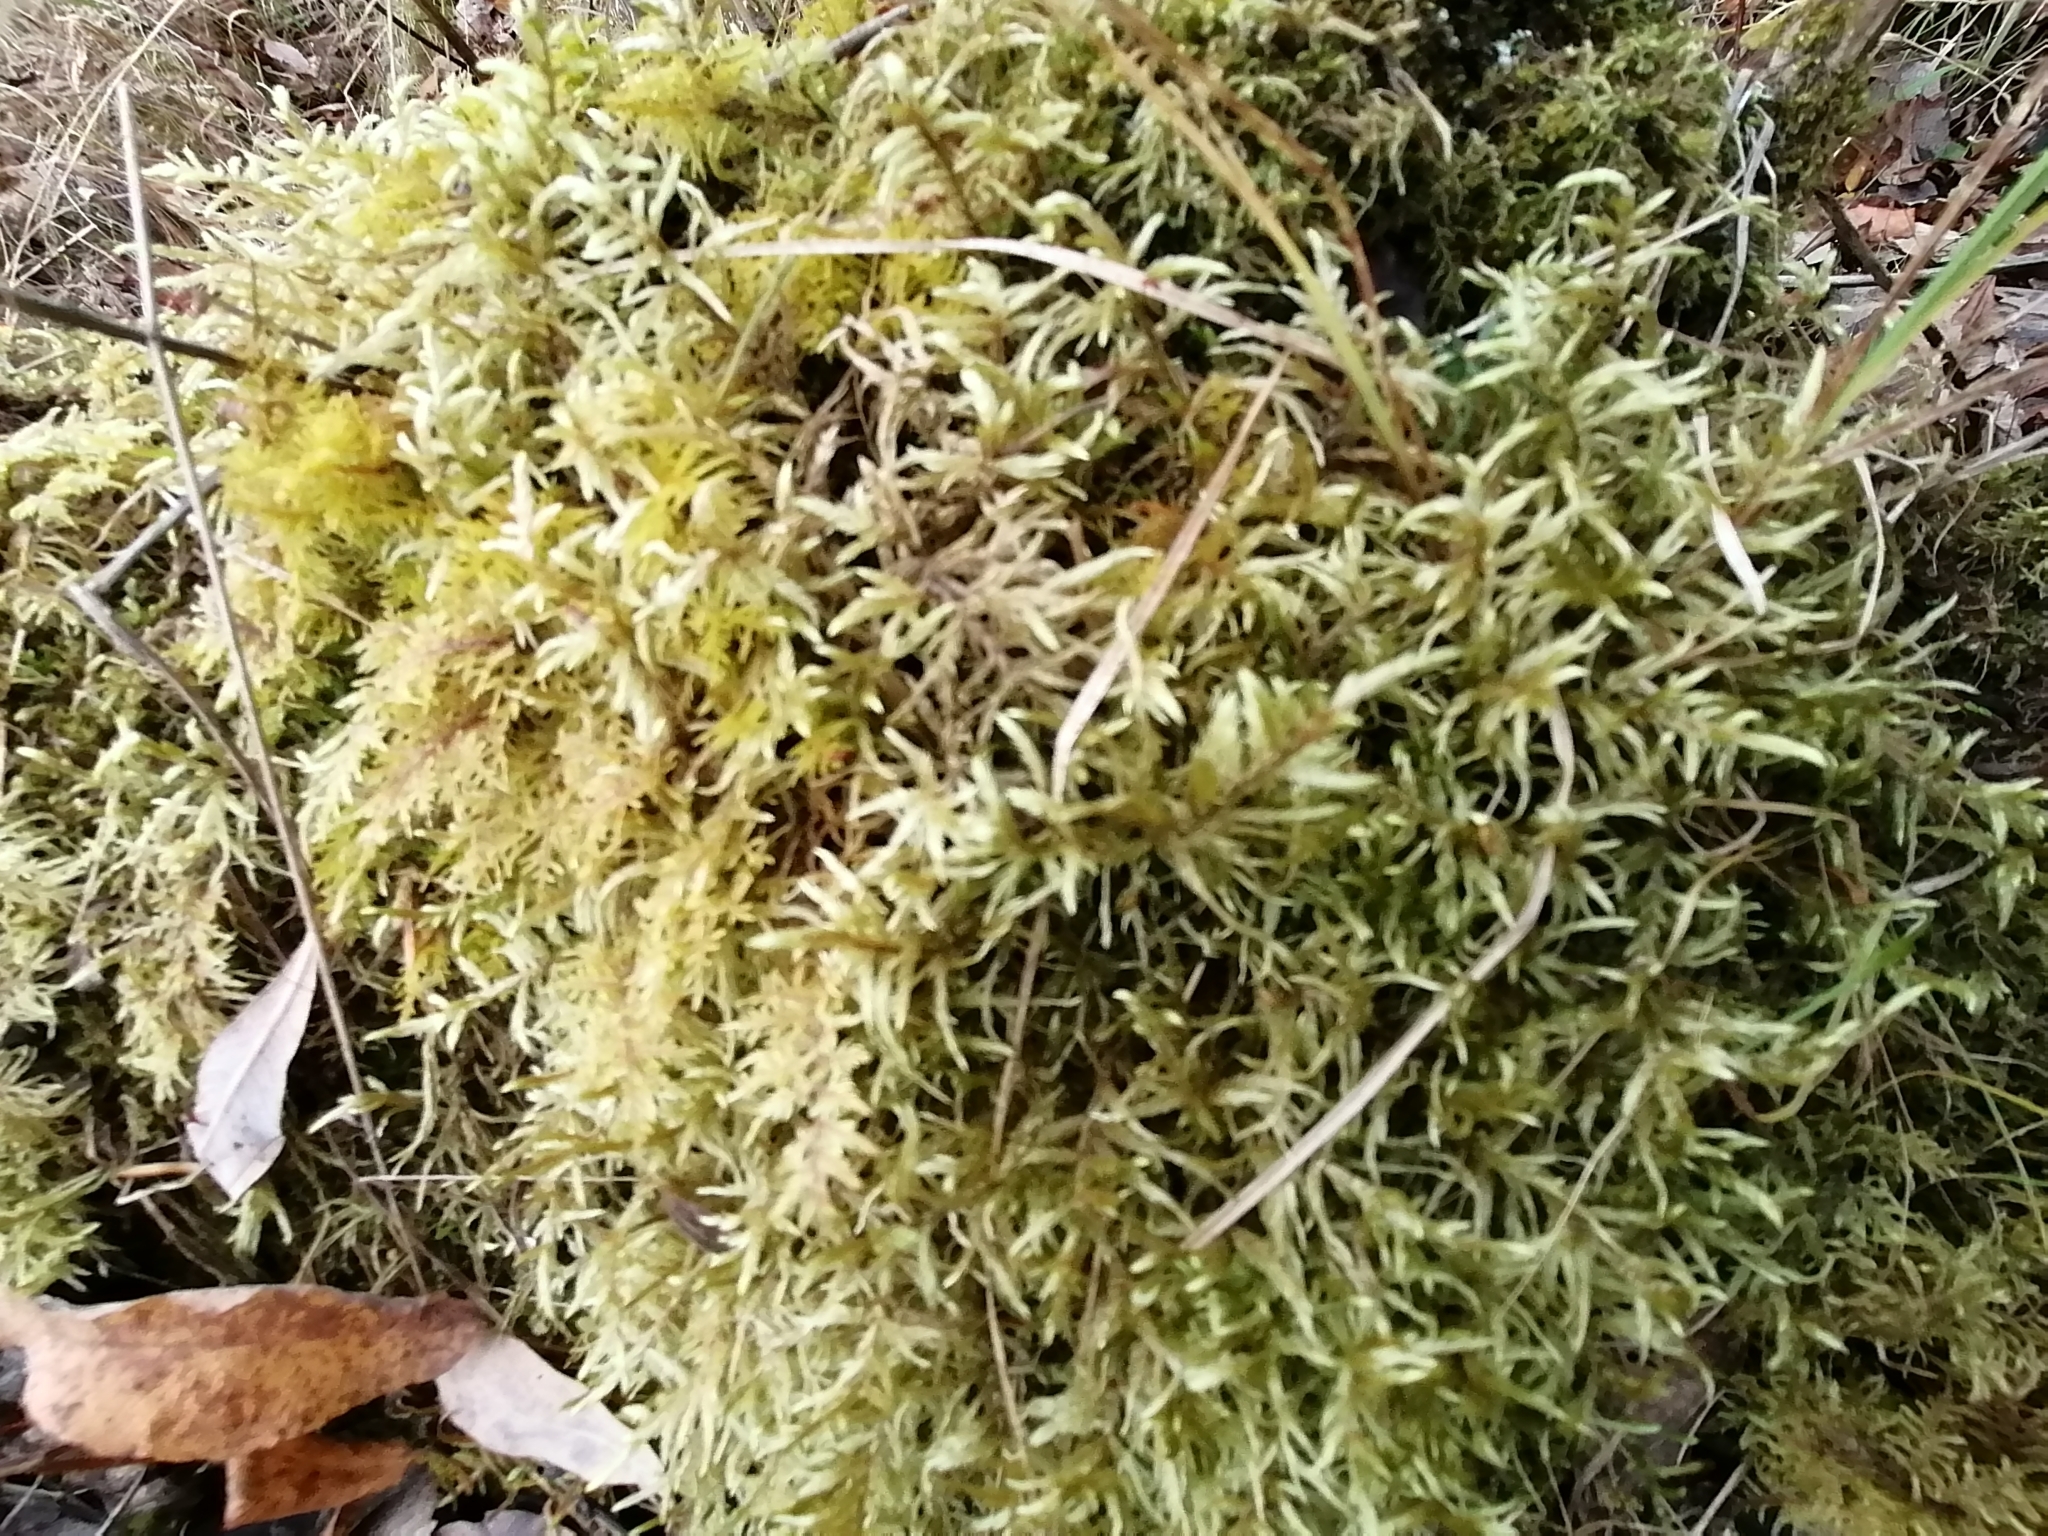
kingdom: Plantae
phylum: Bryophyta
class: Bryopsida
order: Hypnales
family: Hylocomiaceae
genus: Pleurozium
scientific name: Pleurozium schreberi
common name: Red-stemmed feather moss
